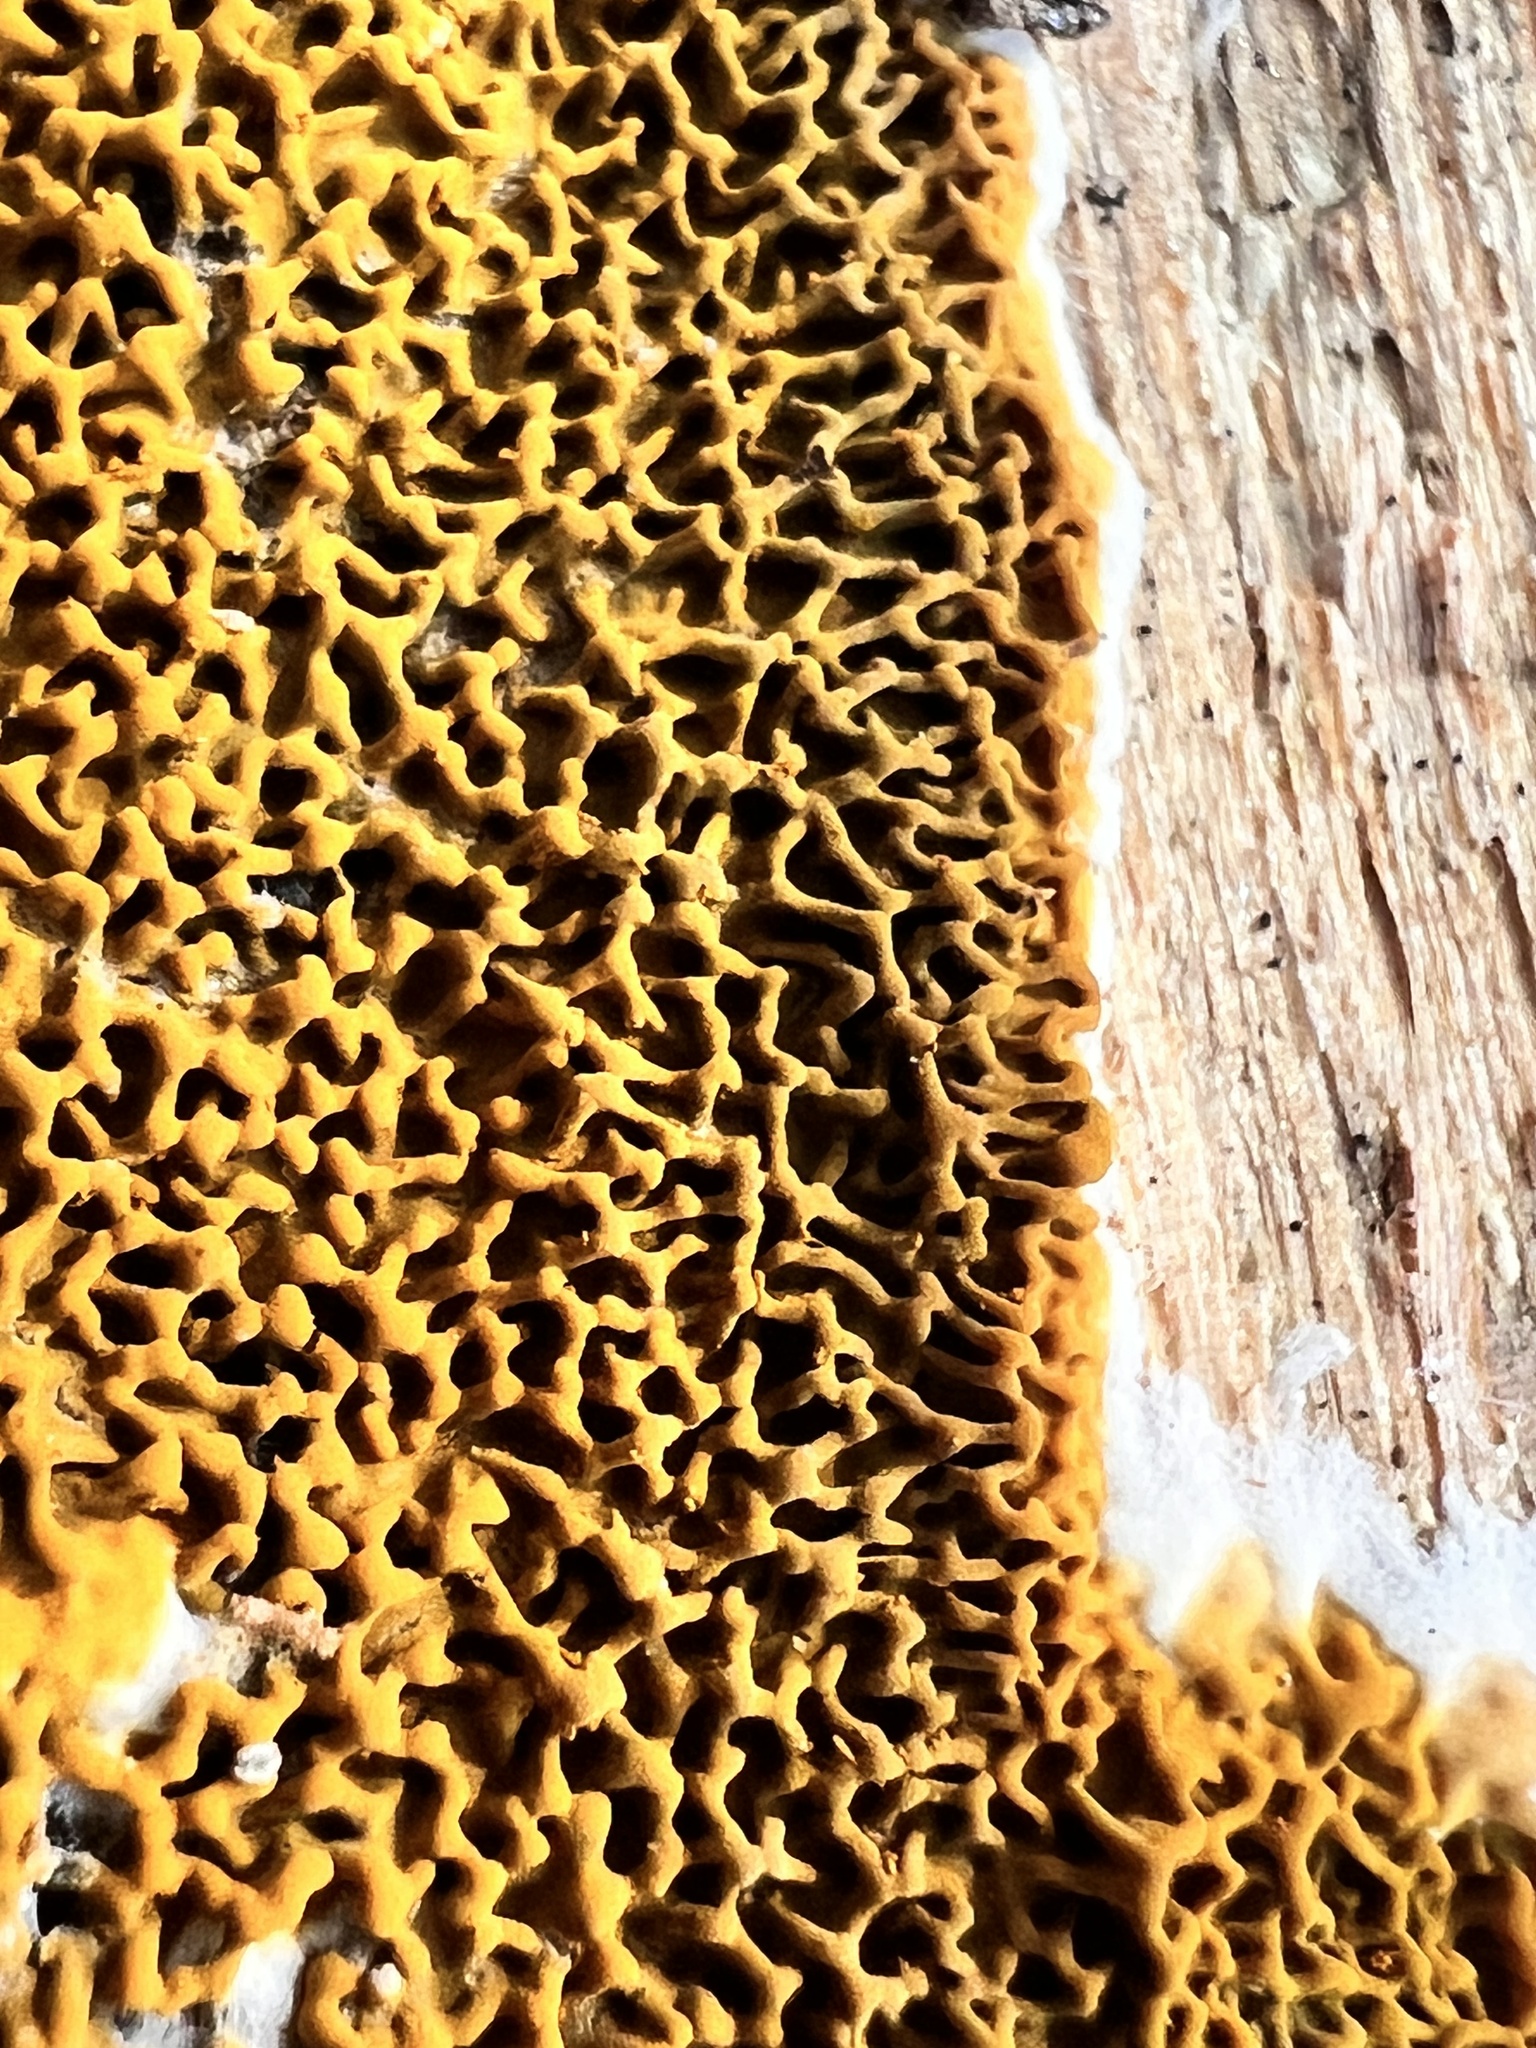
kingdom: Fungi
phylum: Basidiomycota
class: Agaricomycetes
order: Boletales
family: Serpulaceae
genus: Serpula
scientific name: Serpula himantioides
